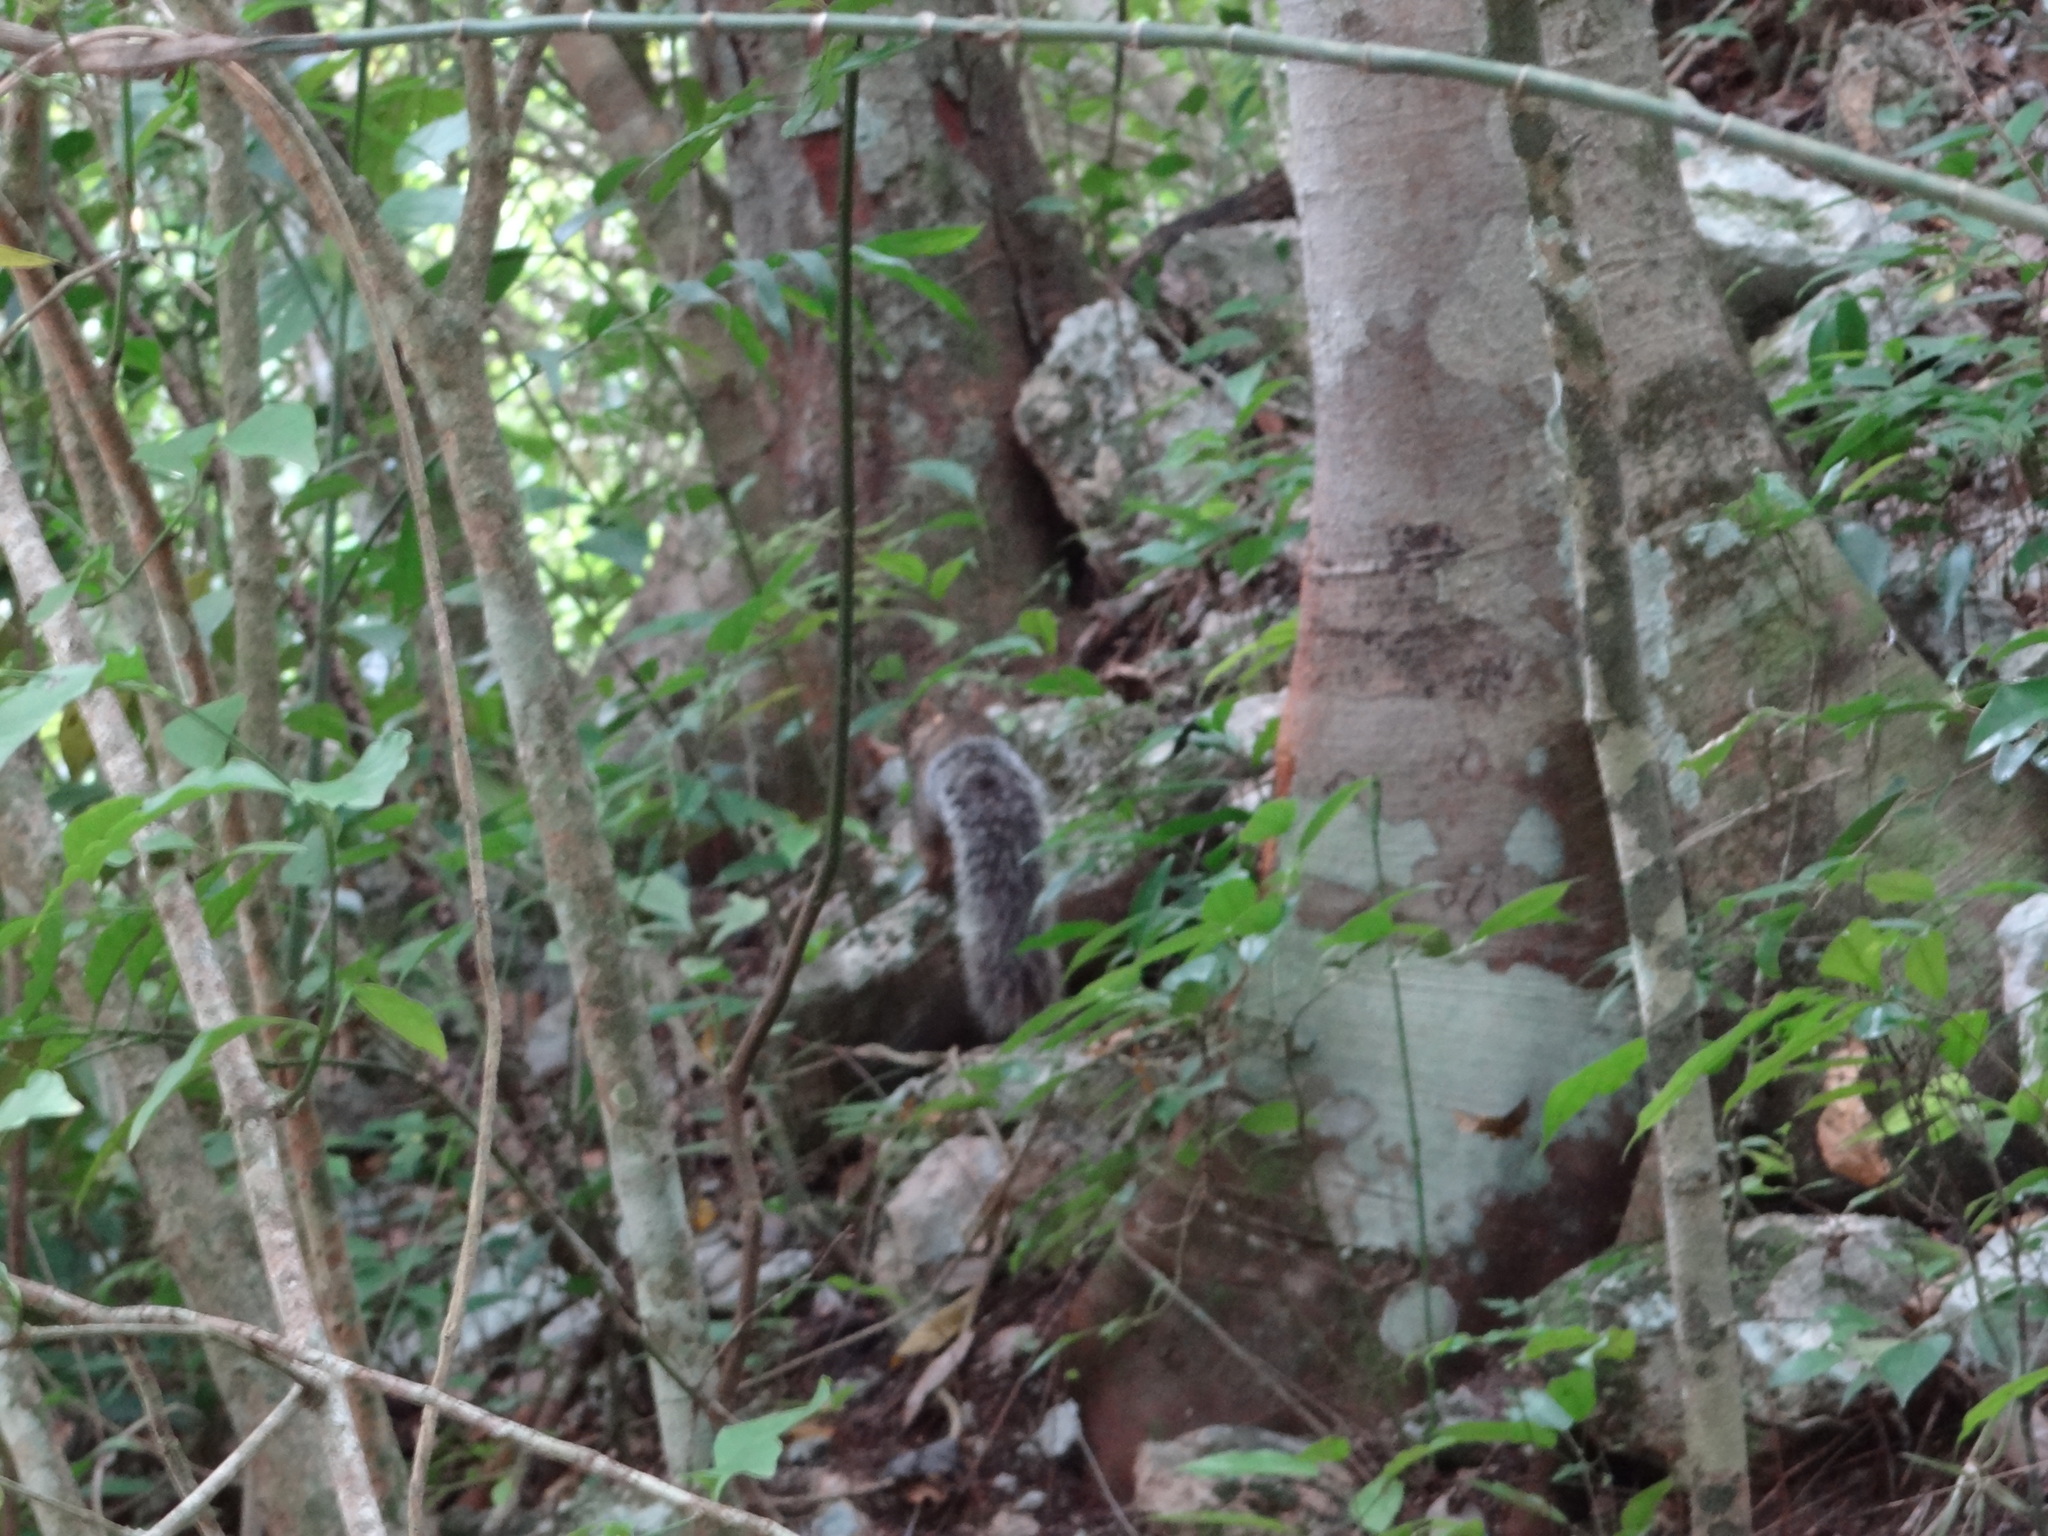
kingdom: Animalia
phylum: Chordata
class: Mammalia
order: Rodentia
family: Sciuridae
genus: Sciurus
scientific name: Sciurus deppei
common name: Deppe's squirrel
